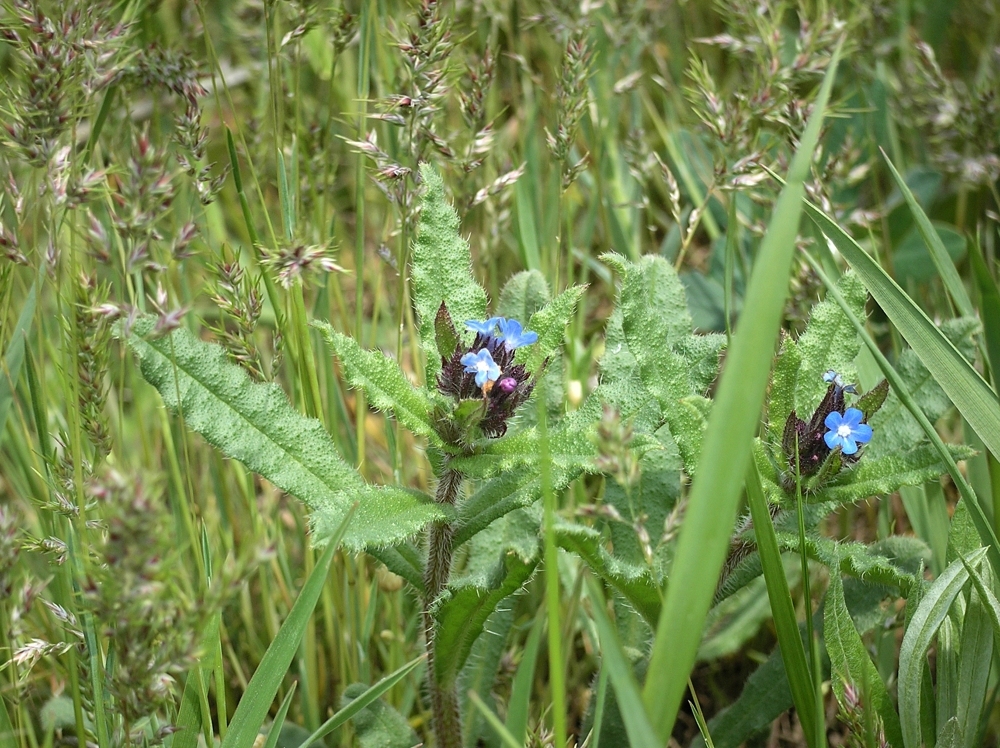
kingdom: Plantae
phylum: Tracheophyta
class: Magnoliopsida
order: Boraginales
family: Boraginaceae
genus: Lycopsis
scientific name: Lycopsis arvensis
